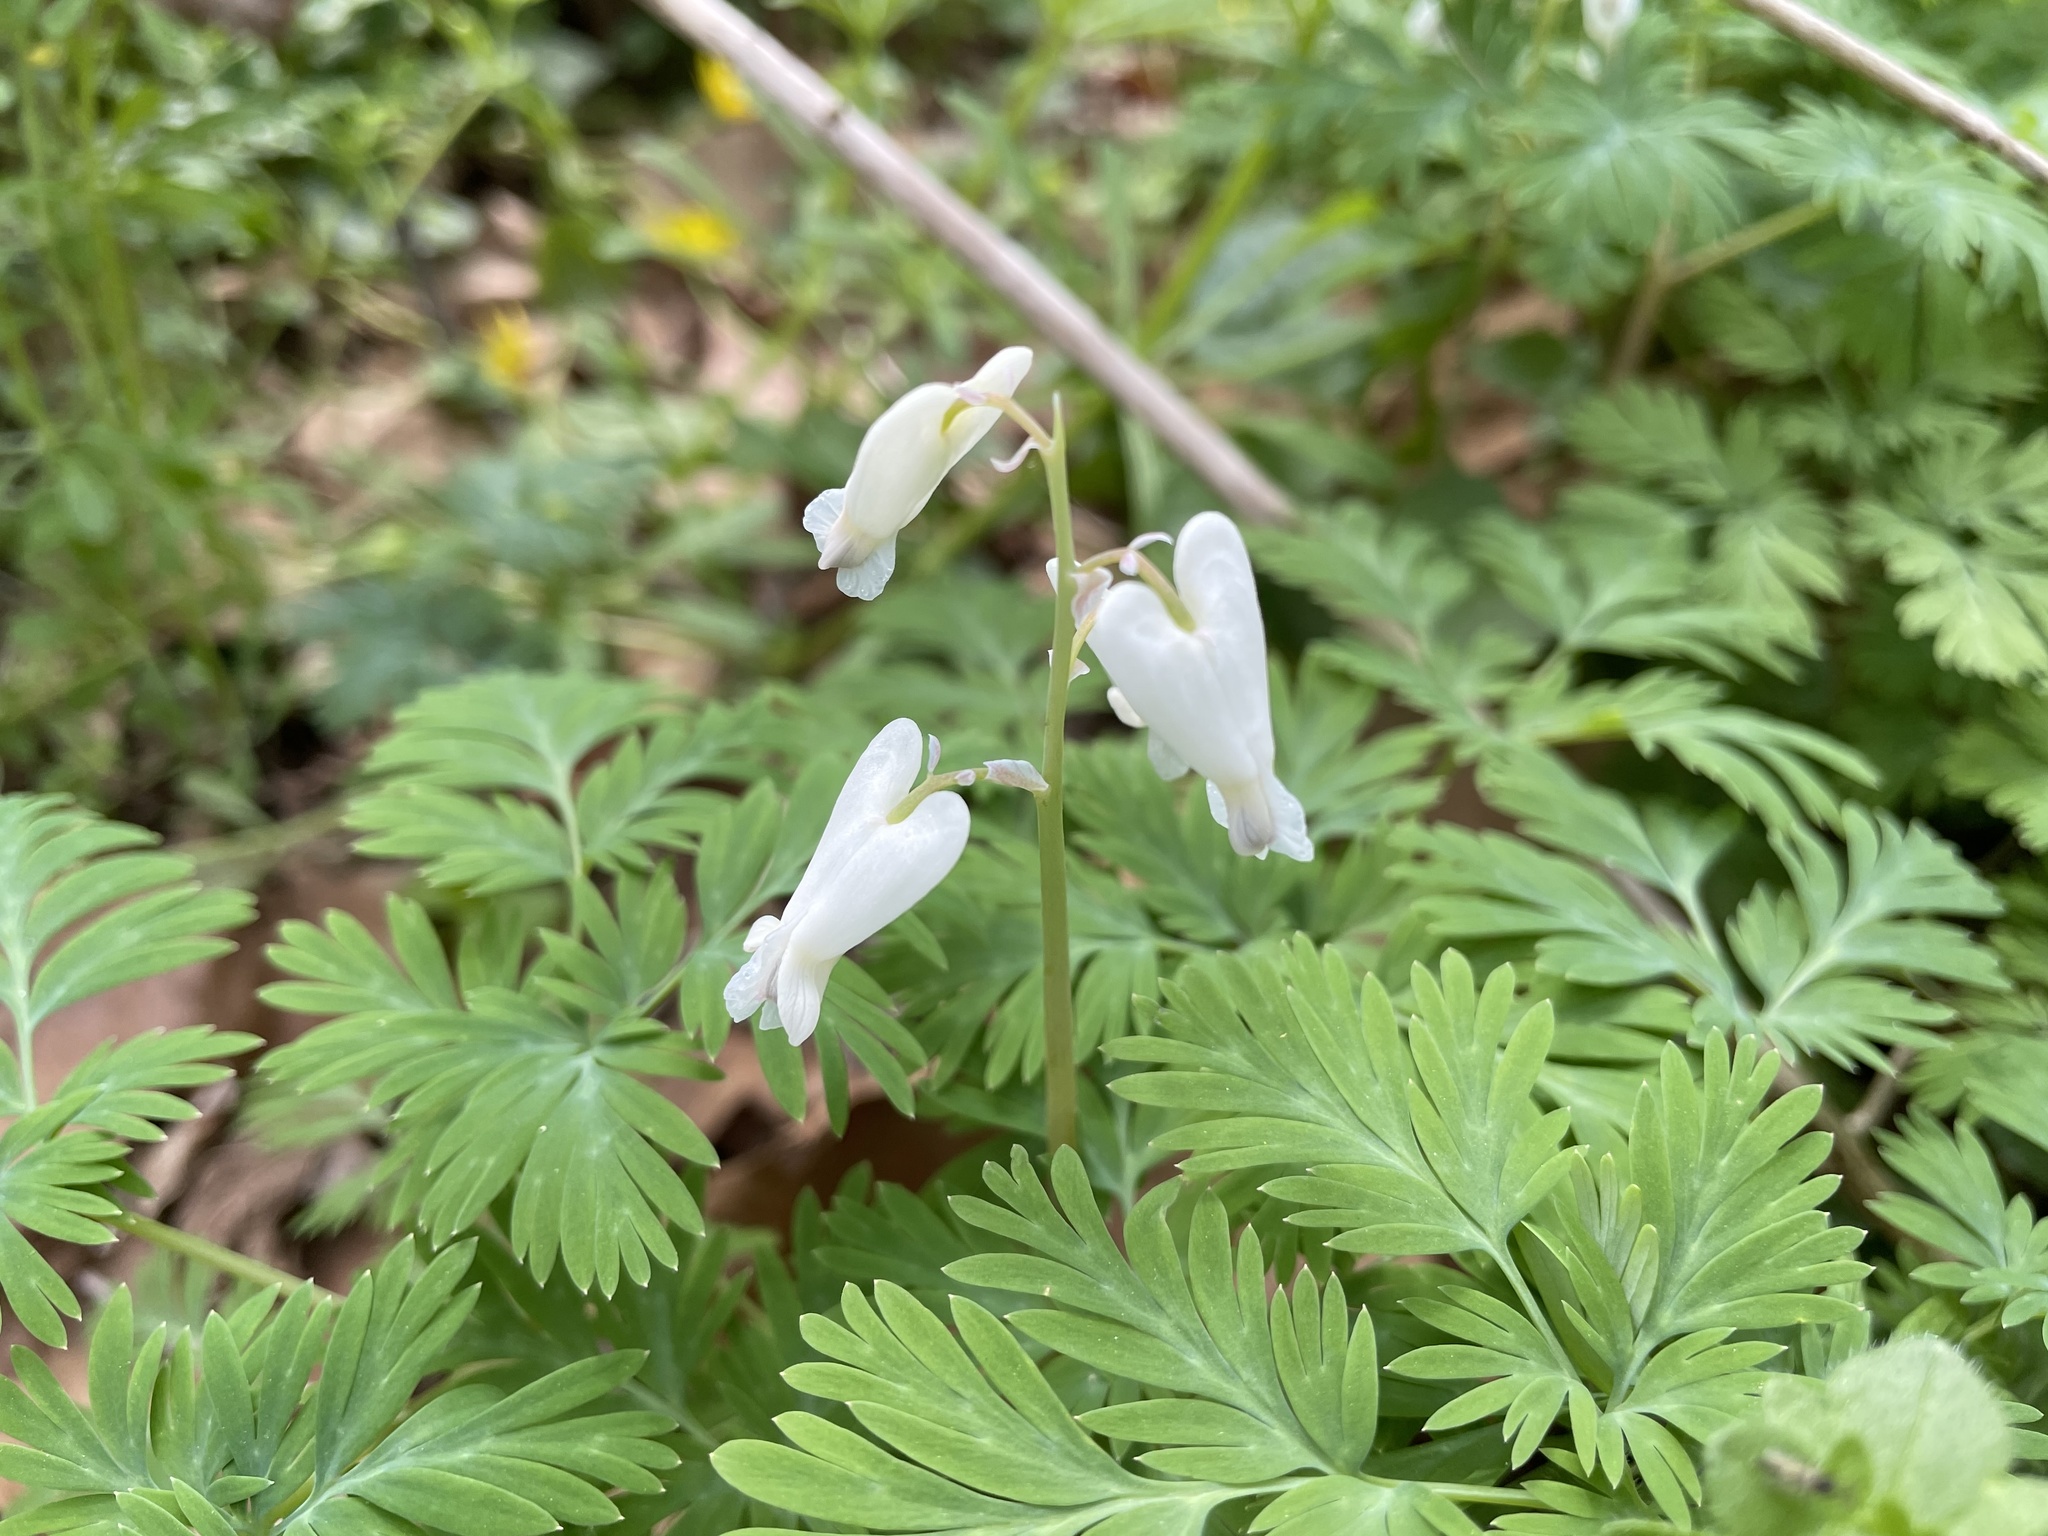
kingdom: Plantae
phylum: Tracheophyta
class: Magnoliopsida
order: Ranunculales
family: Papaveraceae
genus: Dicentra
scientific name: Dicentra canadensis
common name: Squirrel-corn
